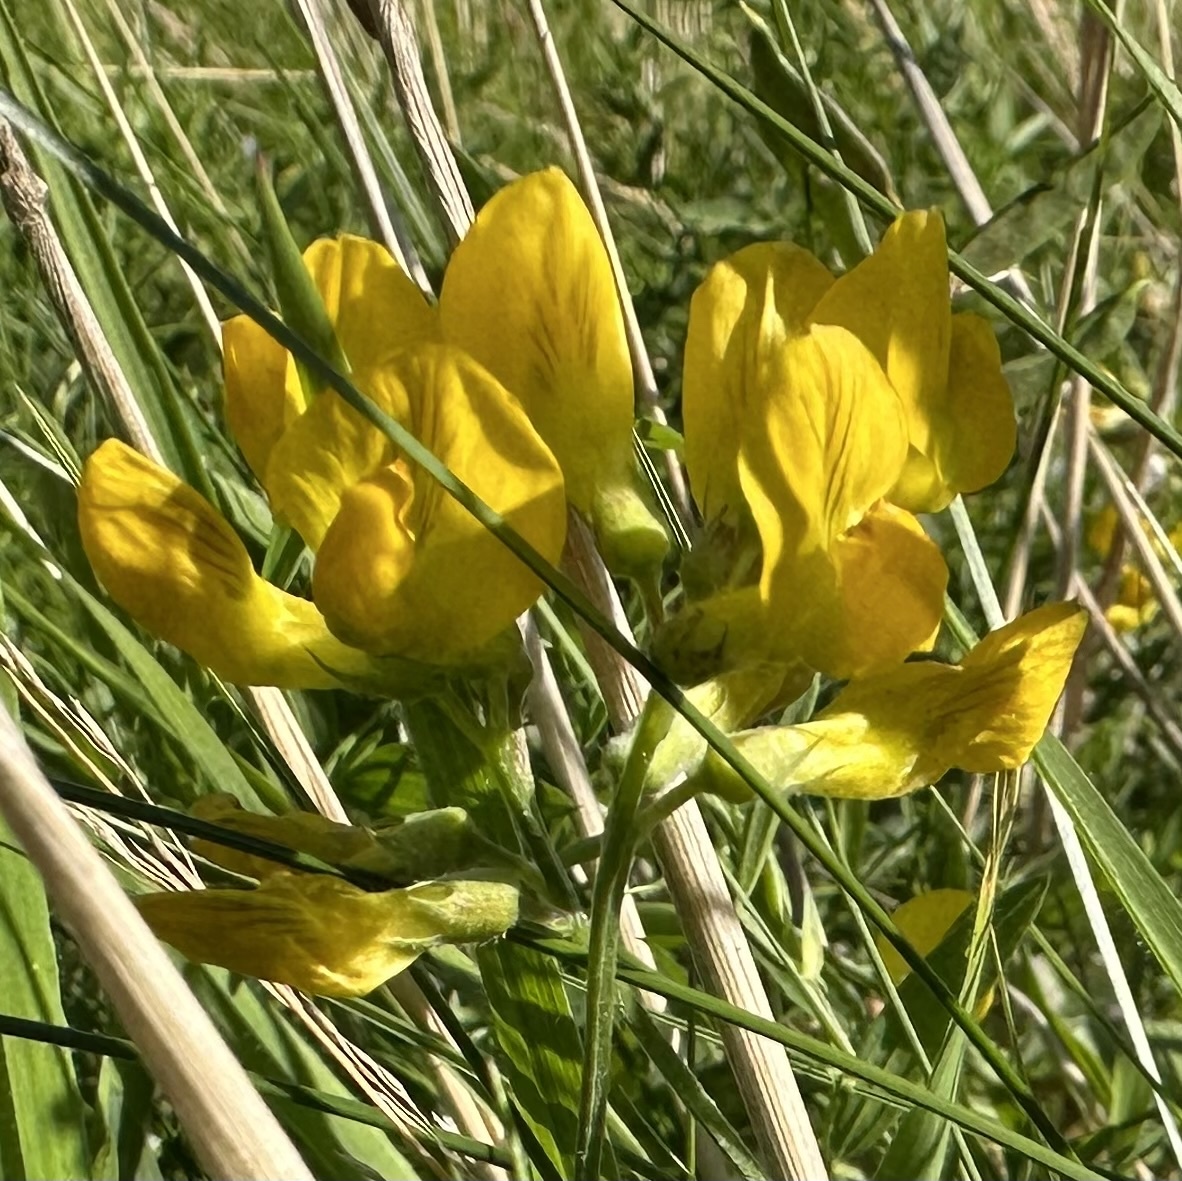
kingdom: Plantae
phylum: Tracheophyta
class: Magnoliopsida
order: Fabales
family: Fabaceae
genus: Lathyrus
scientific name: Lathyrus pratensis
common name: Meadow vetchling
